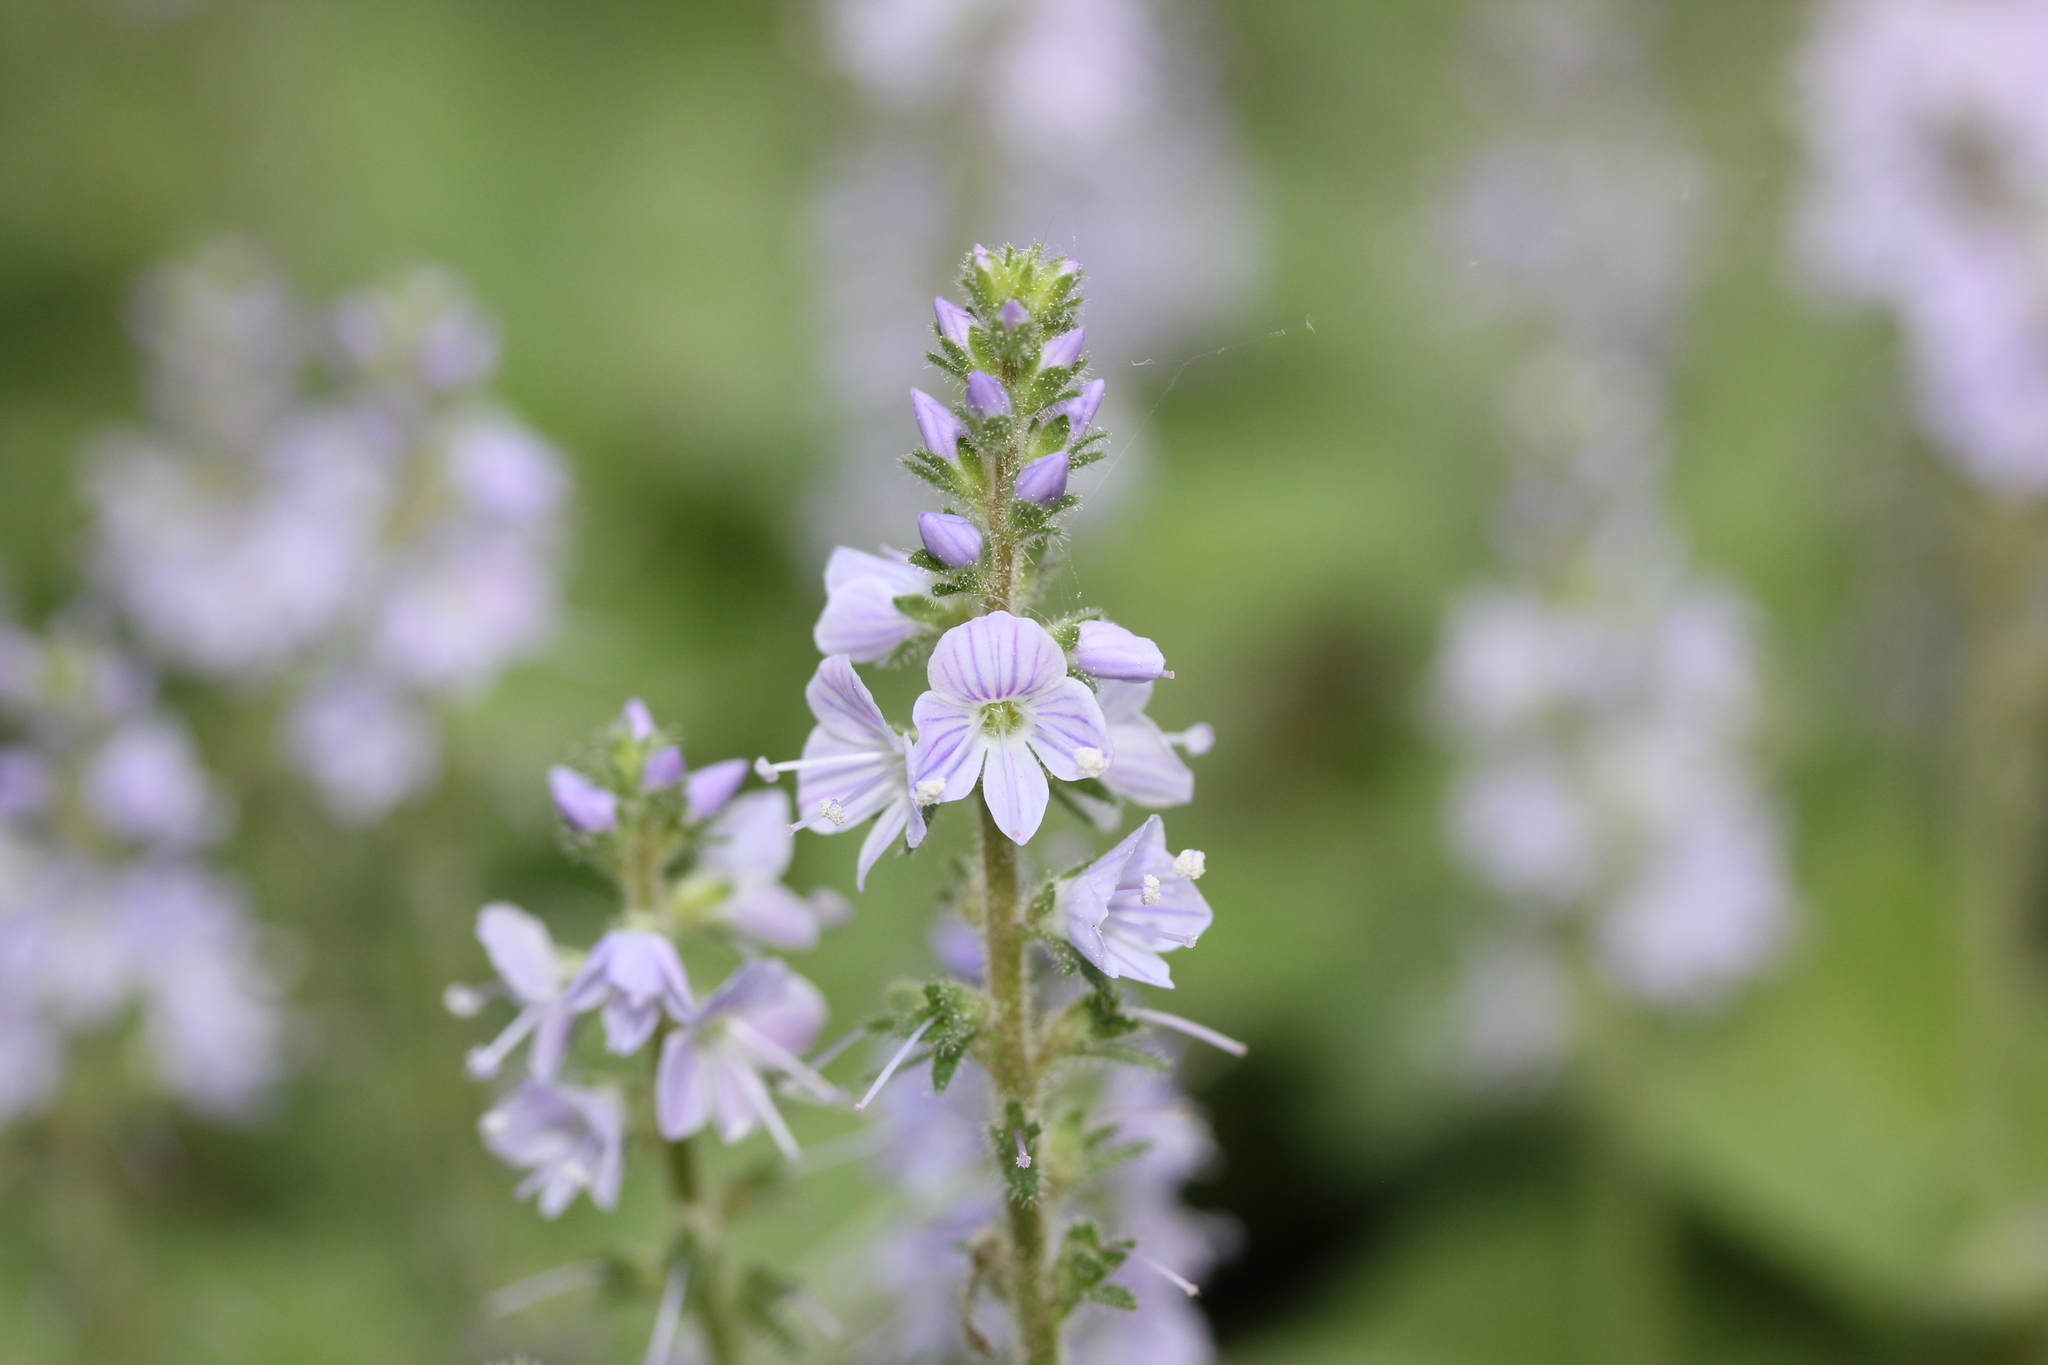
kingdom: Plantae
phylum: Tracheophyta
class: Magnoliopsida
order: Lamiales
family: Plantaginaceae
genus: Veronica
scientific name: Veronica officinalis
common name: Common speedwell
